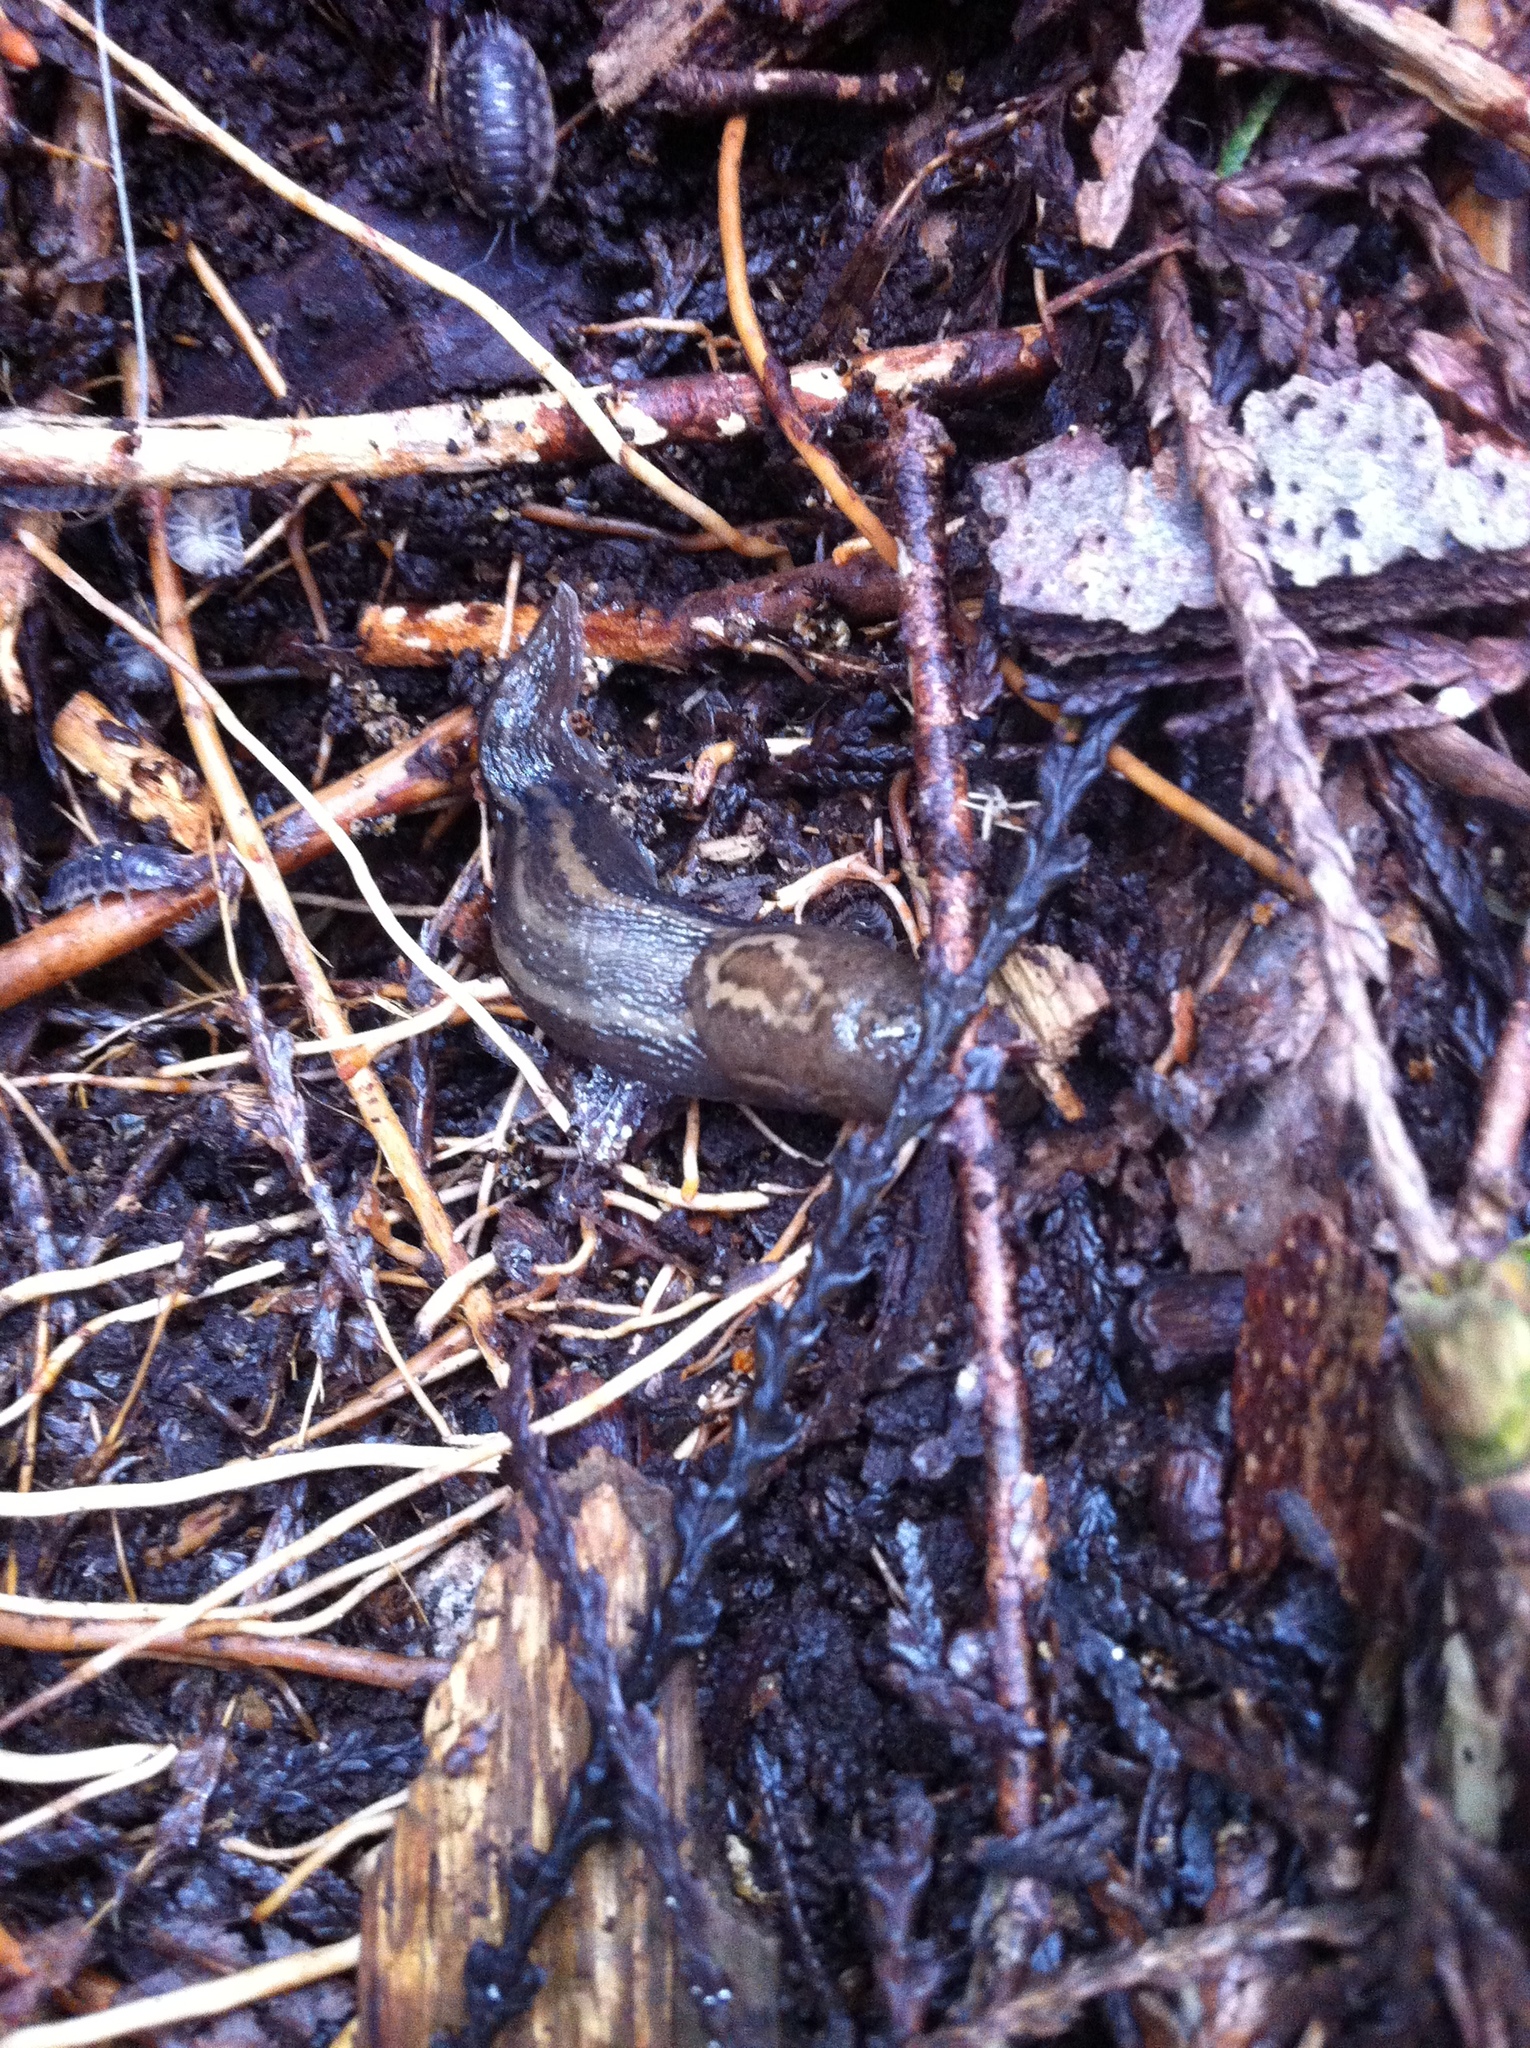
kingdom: Animalia
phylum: Mollusca
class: Gastropoda
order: Stylommatophora
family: Limacidae
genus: Limax
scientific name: Limax maximus
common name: Great grey slug
